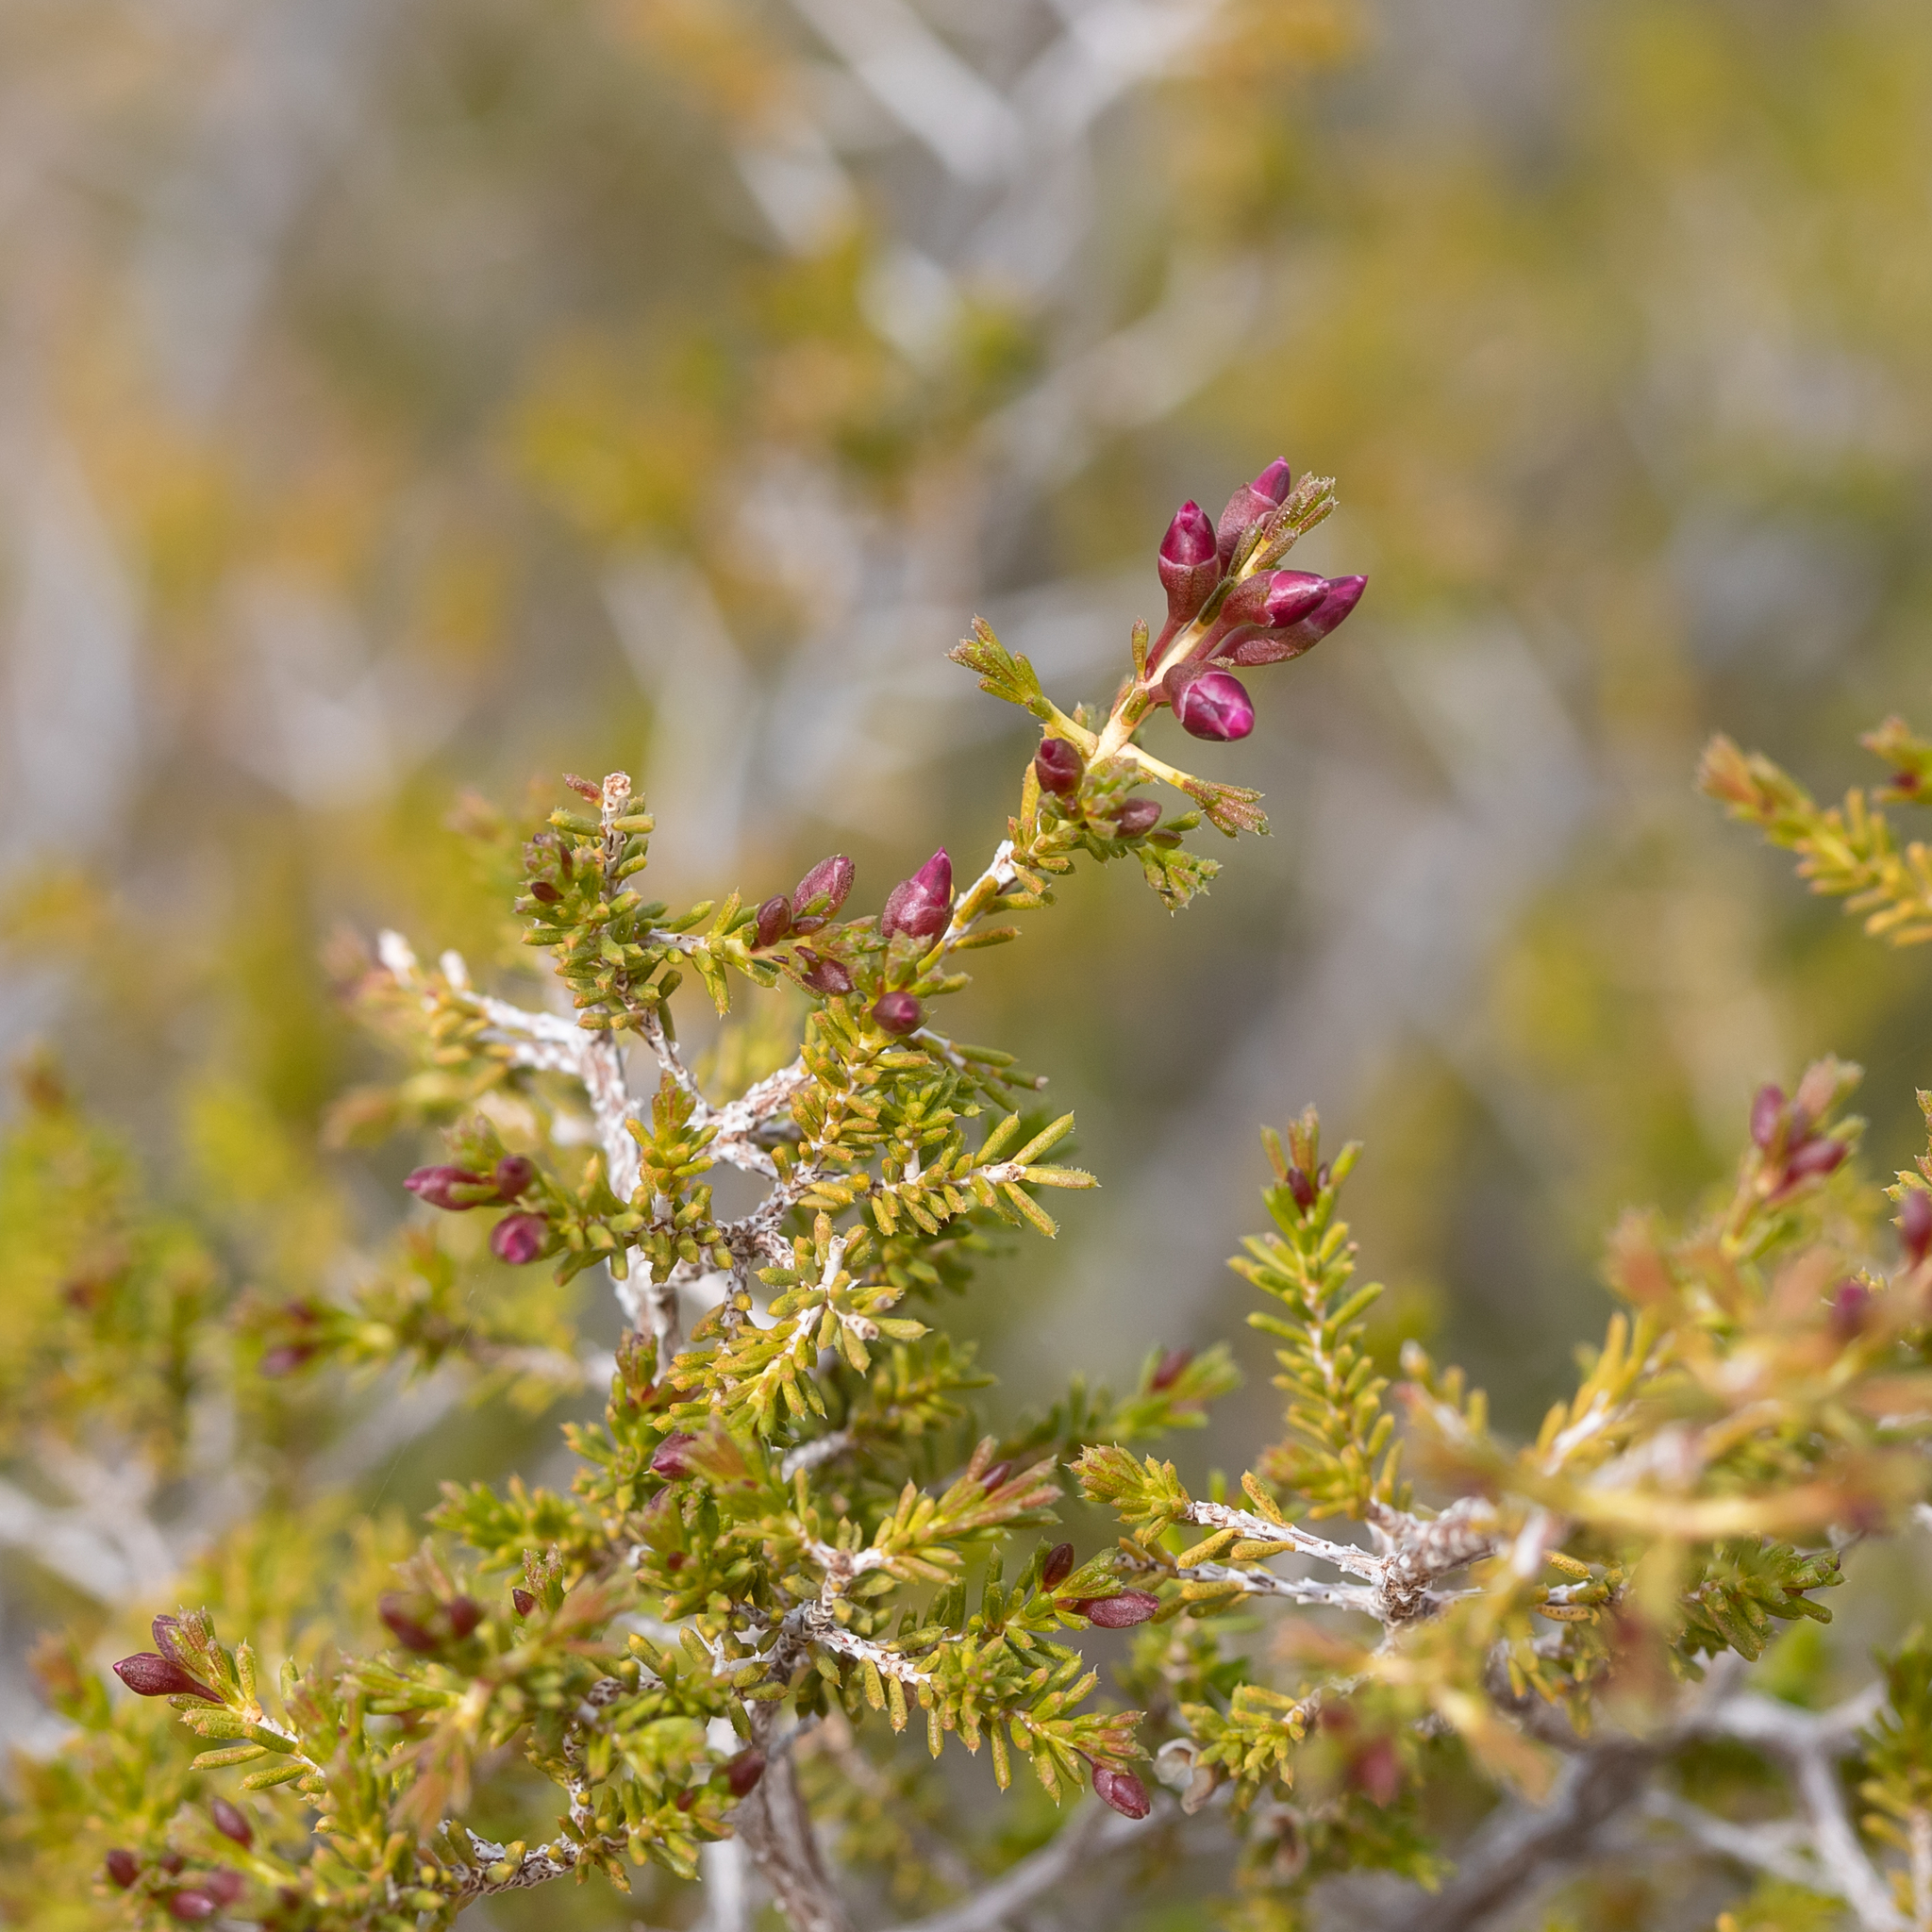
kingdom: Plantae
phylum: Tracheophyta
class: Magnoliopsida
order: Myrtales
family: Myrtaceae
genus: Homalocalyx
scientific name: Homalocalyx polyandrus
